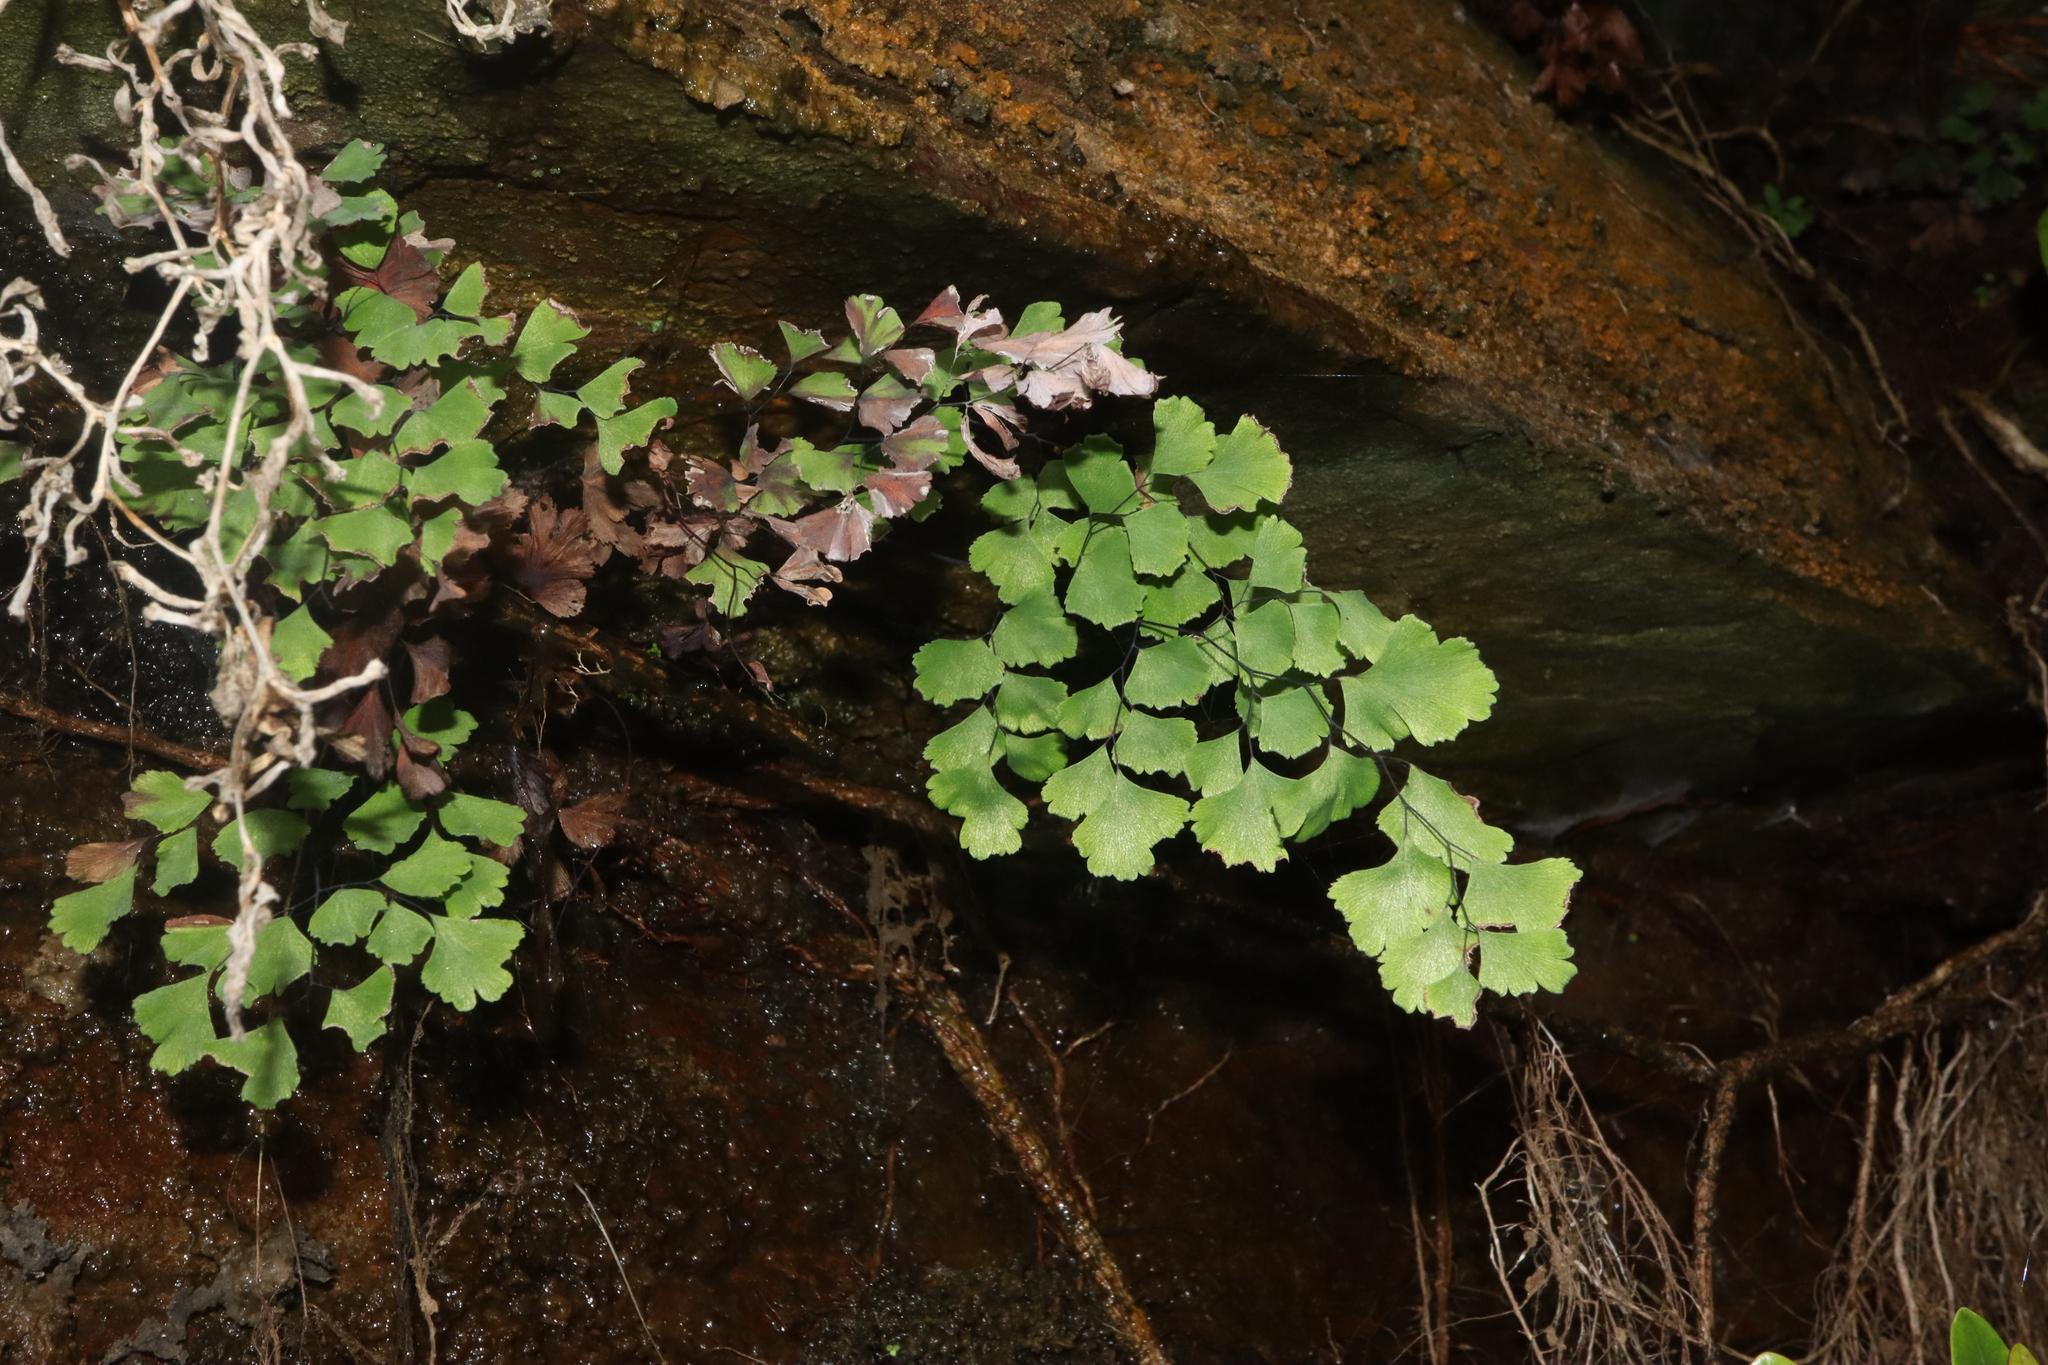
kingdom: Plantae
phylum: Tracheophyta
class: Polypodiopsida
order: Polypodiales
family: Pteridaceae
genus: Adiantum
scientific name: Adiantum capillus-veneris
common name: Maidenhair fern
